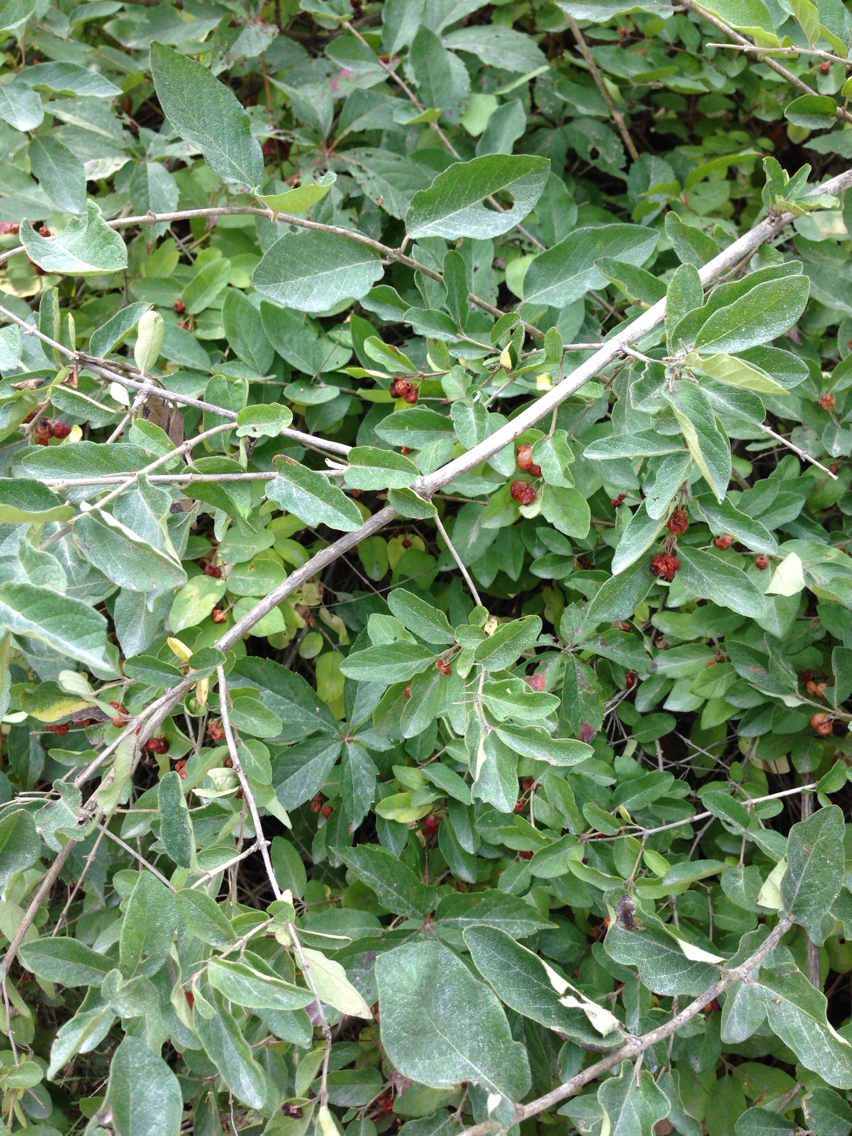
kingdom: Plantae
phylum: Tracheophyta
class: Magnoliopsida
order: Dipsacales
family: Caprifoliaceae
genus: Lonicera
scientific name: Lonicera morrowii
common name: Morrow's honeysuckle
